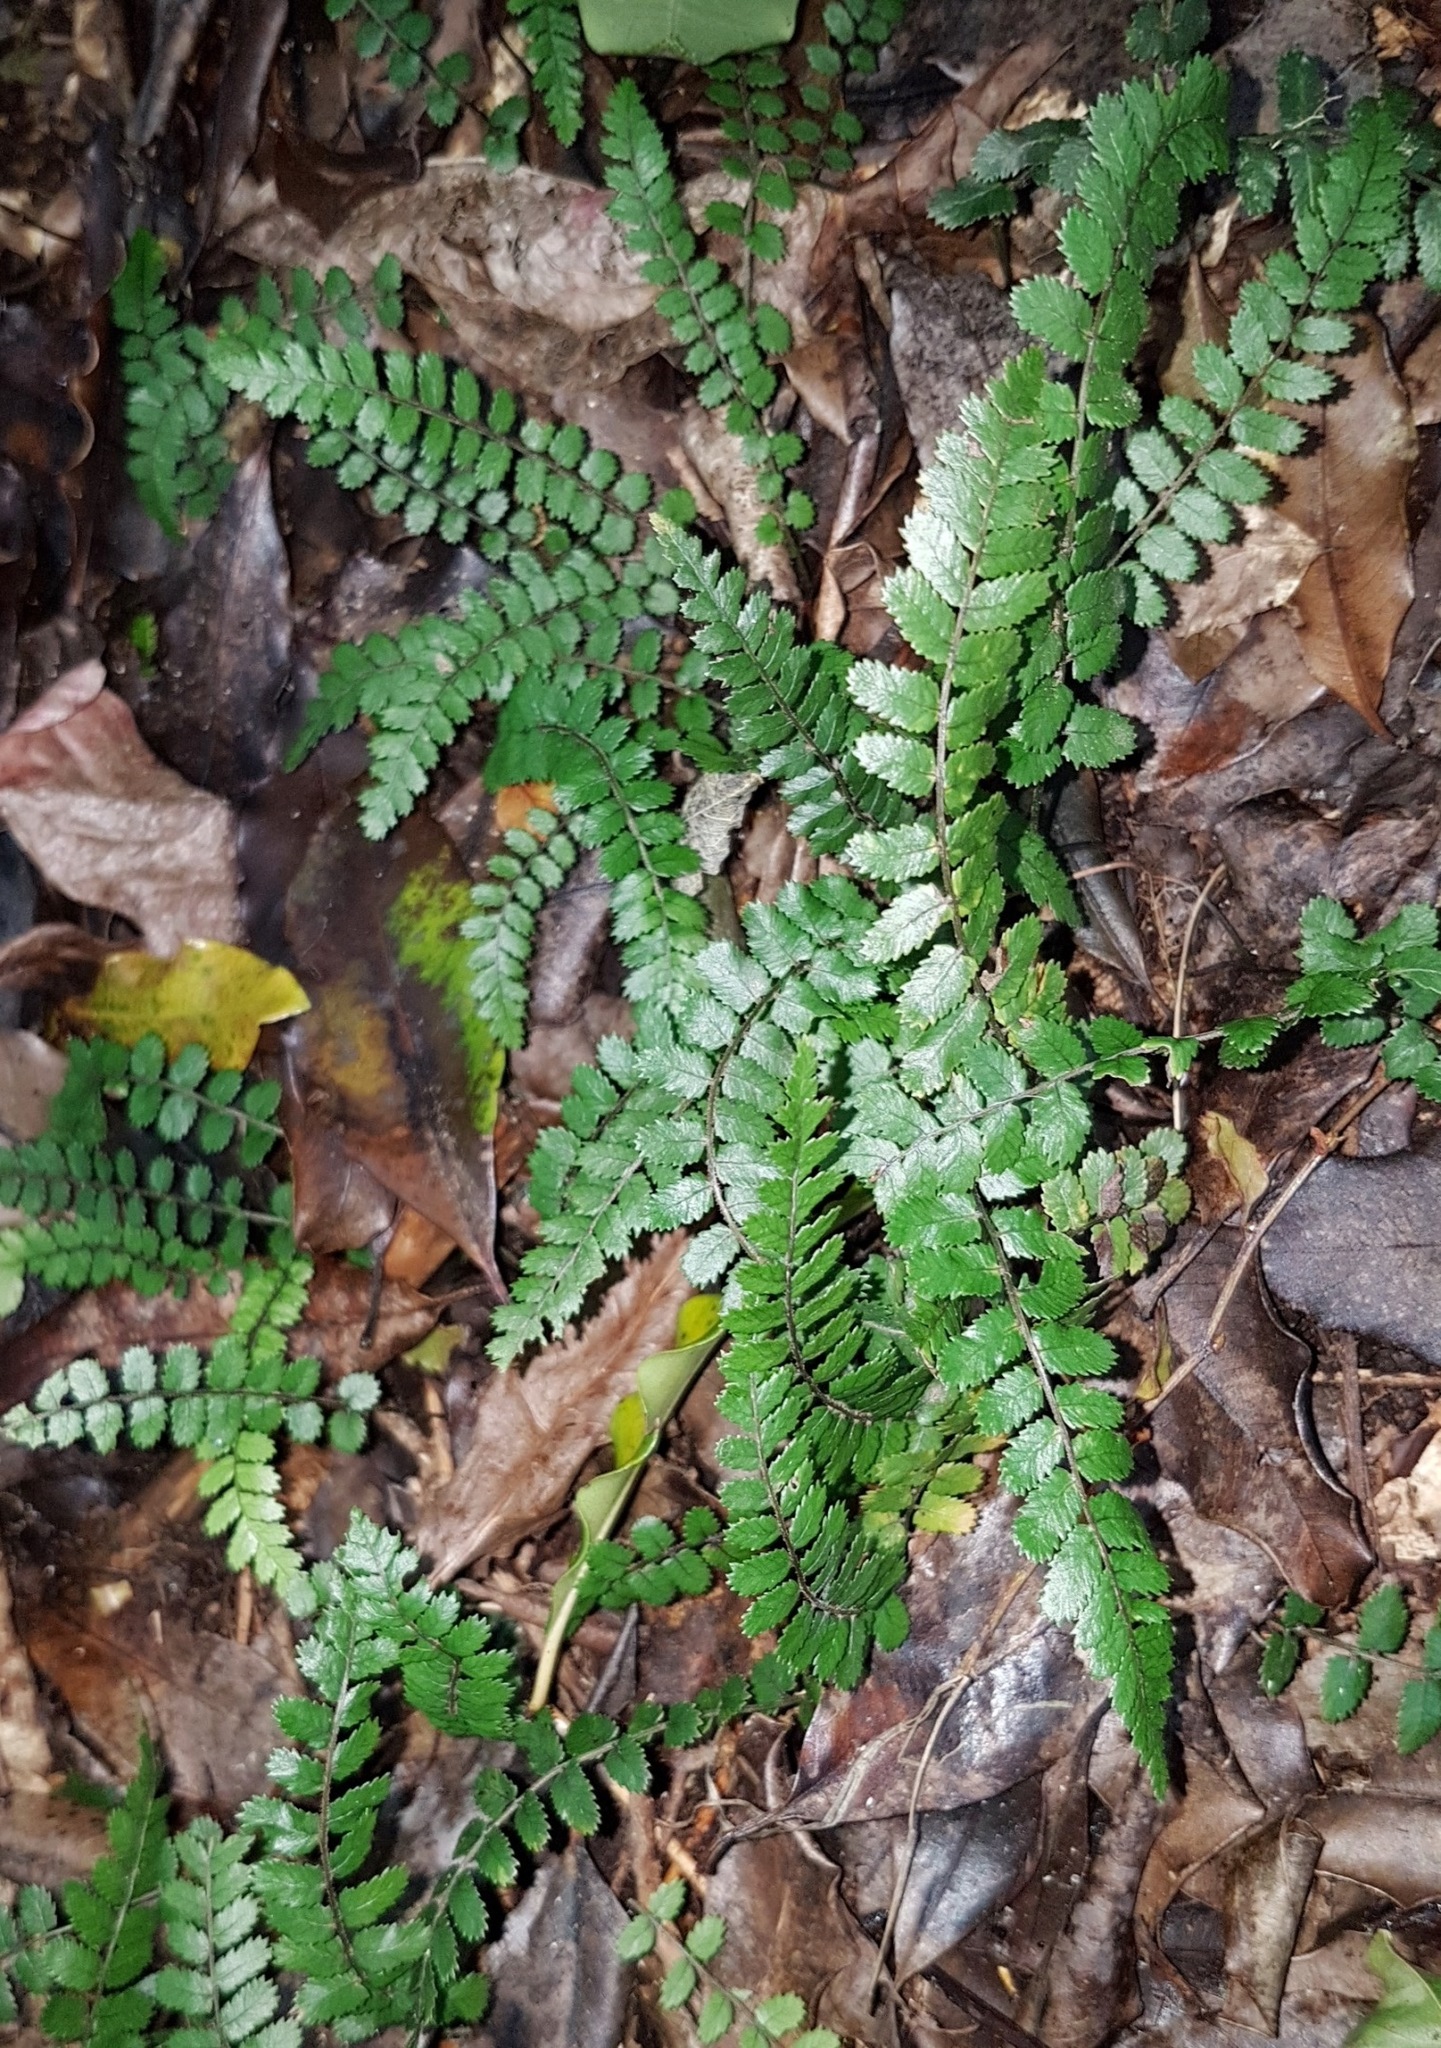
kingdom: Plantae
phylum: Tracheophyta
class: Polypodiopsida
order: Polypodiales
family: Blechnaceae
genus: Icarus
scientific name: Icarus filiformis
